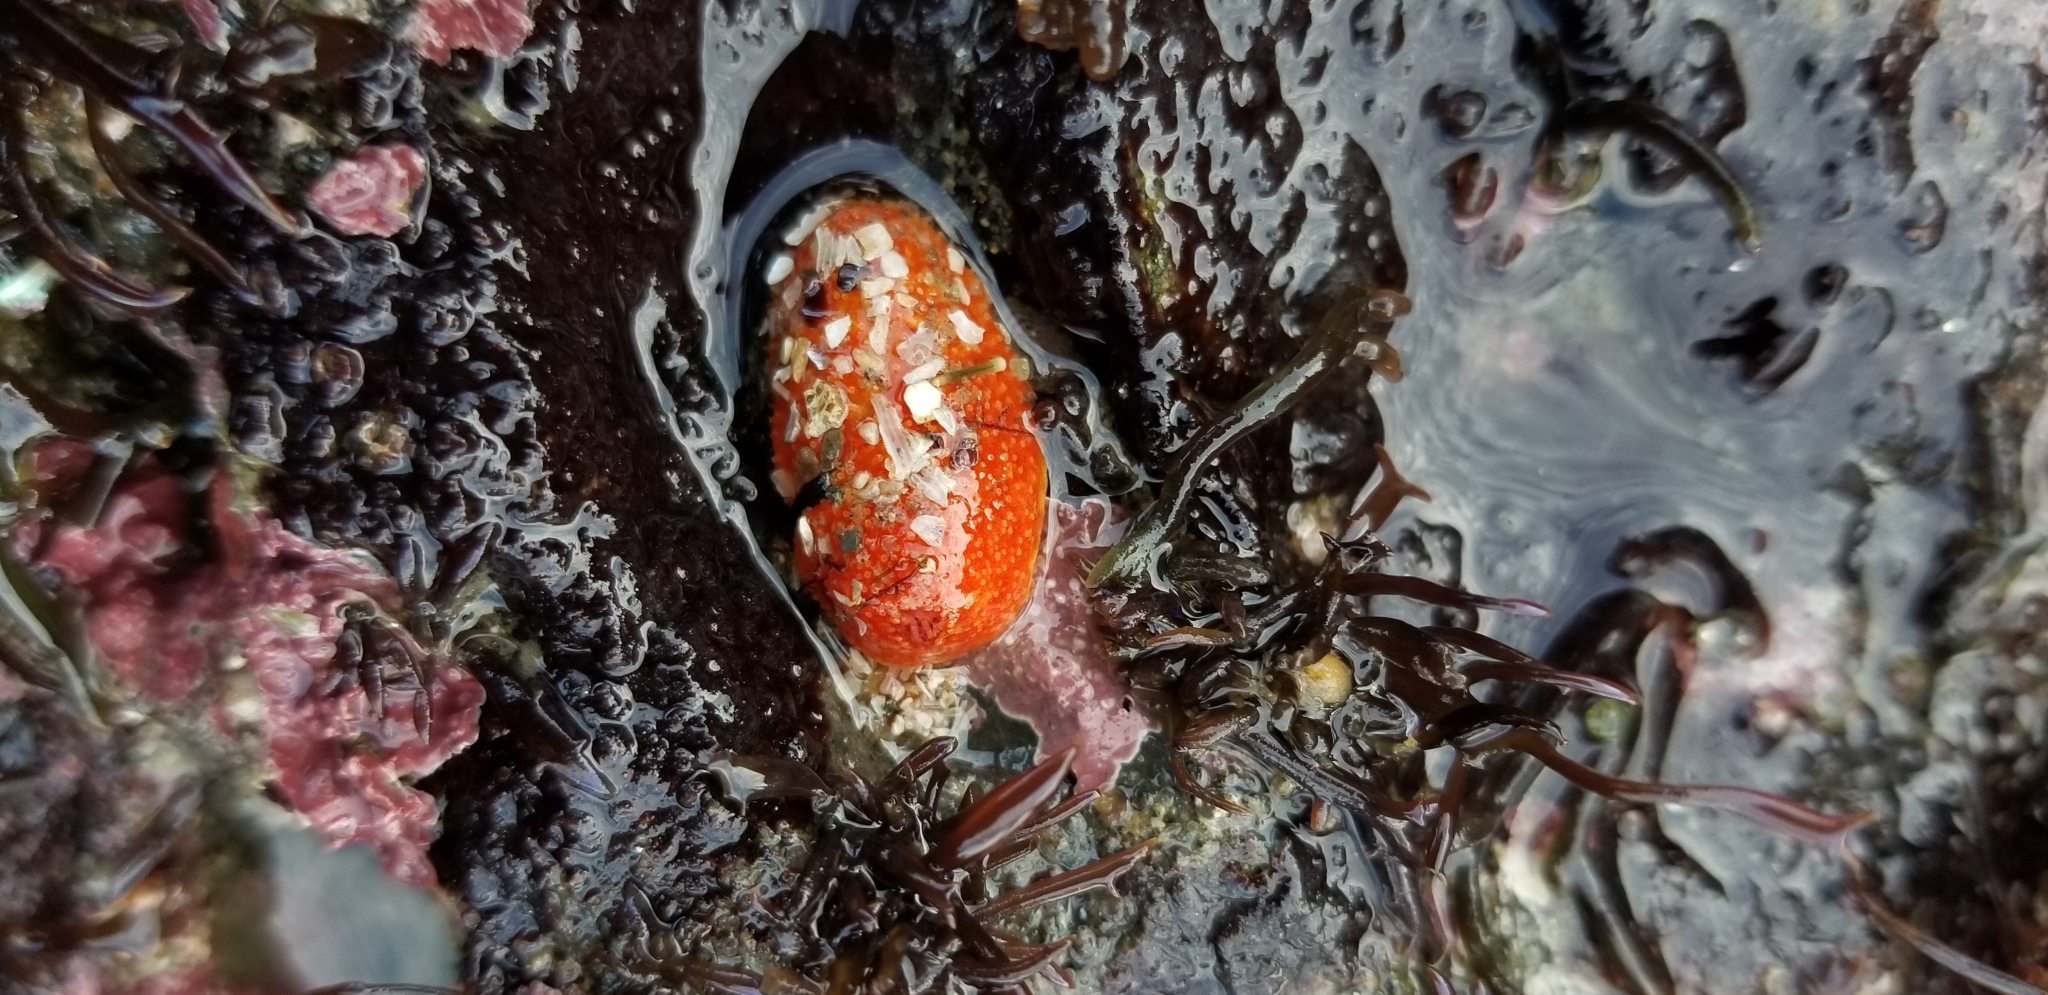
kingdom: Animalia
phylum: Echinodermata
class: Holothuroidea
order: Dendrochirotida
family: Psolidae
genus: Lissothuria
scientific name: Lissothuria nutriens
